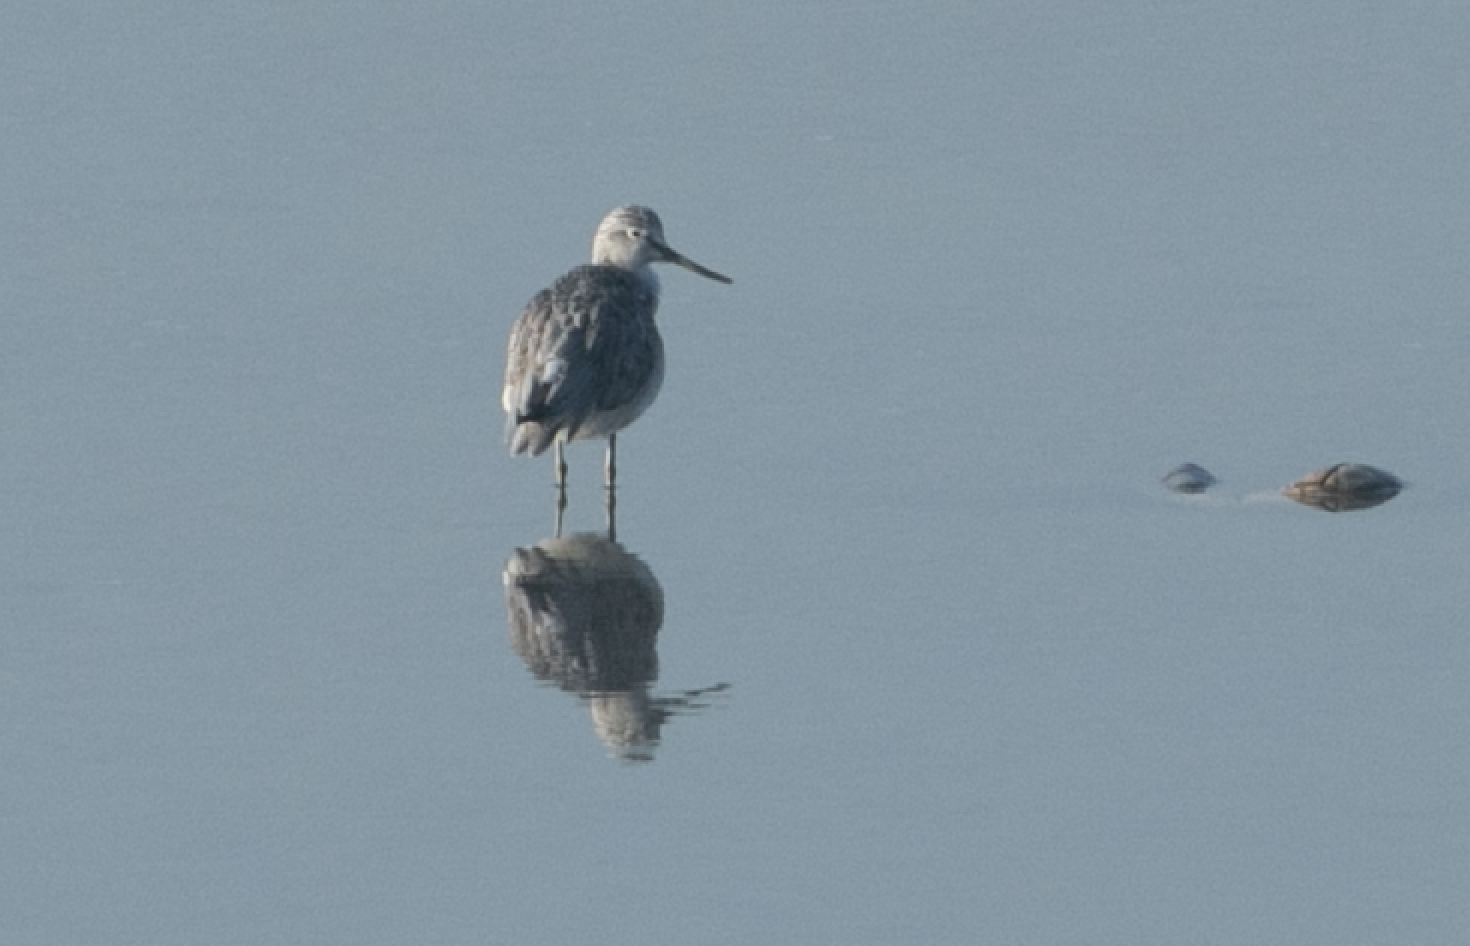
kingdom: Animalia
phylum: Chordata
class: Aves
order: Charadriiformes
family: Scolopacidae
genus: Tringa
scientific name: Tringa nebularia
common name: Common greenshank
